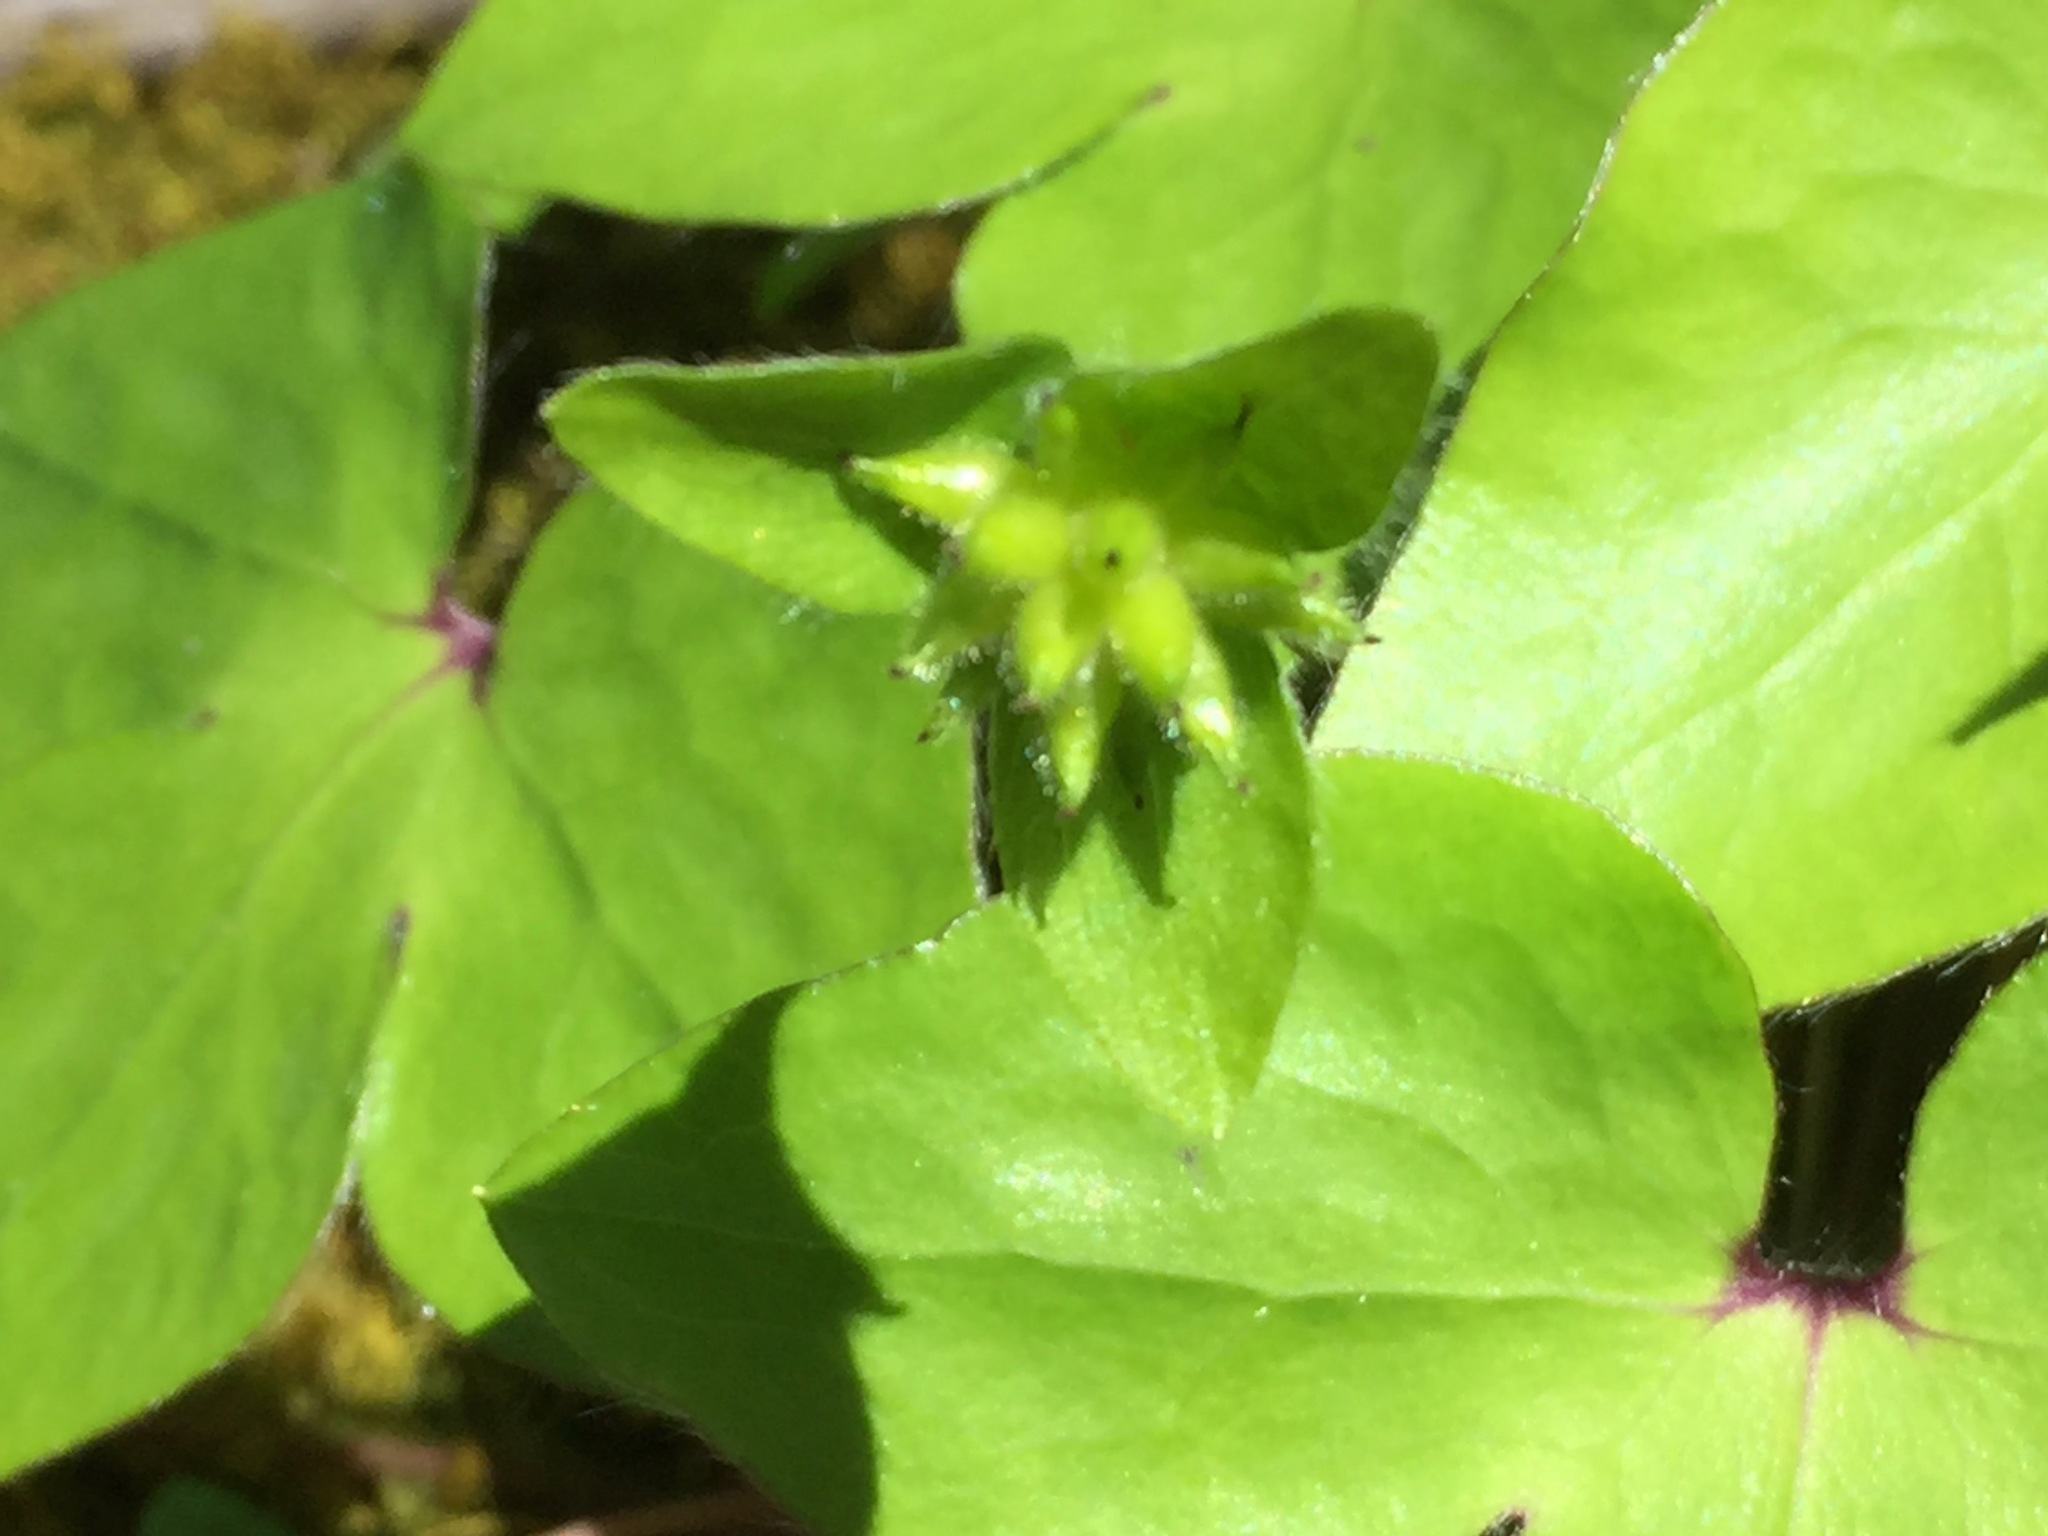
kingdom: Plantae
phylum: Tracheophyta
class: Magnoliopsida
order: Ranunculales
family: Ranunculaceae
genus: Hepatica
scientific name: Hepatica acutiloba
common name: Sharp-lobed hepatica
